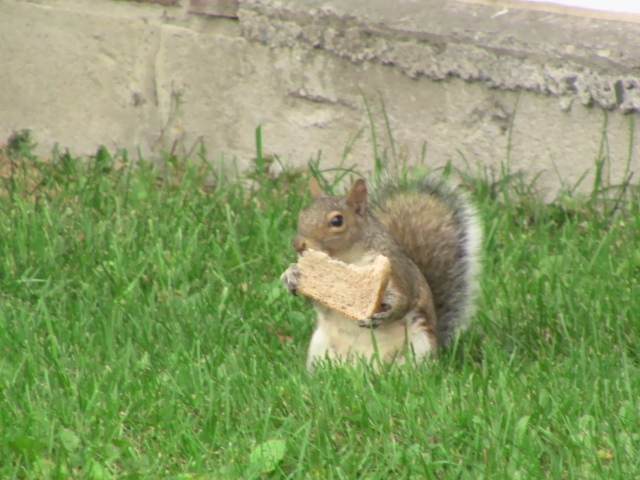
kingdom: Animalia
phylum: Chordata
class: Mammalia
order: Rodentia
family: Sciuridae
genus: Sciurus
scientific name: Sciurus carolinensis
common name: Eastern gray squirrel
